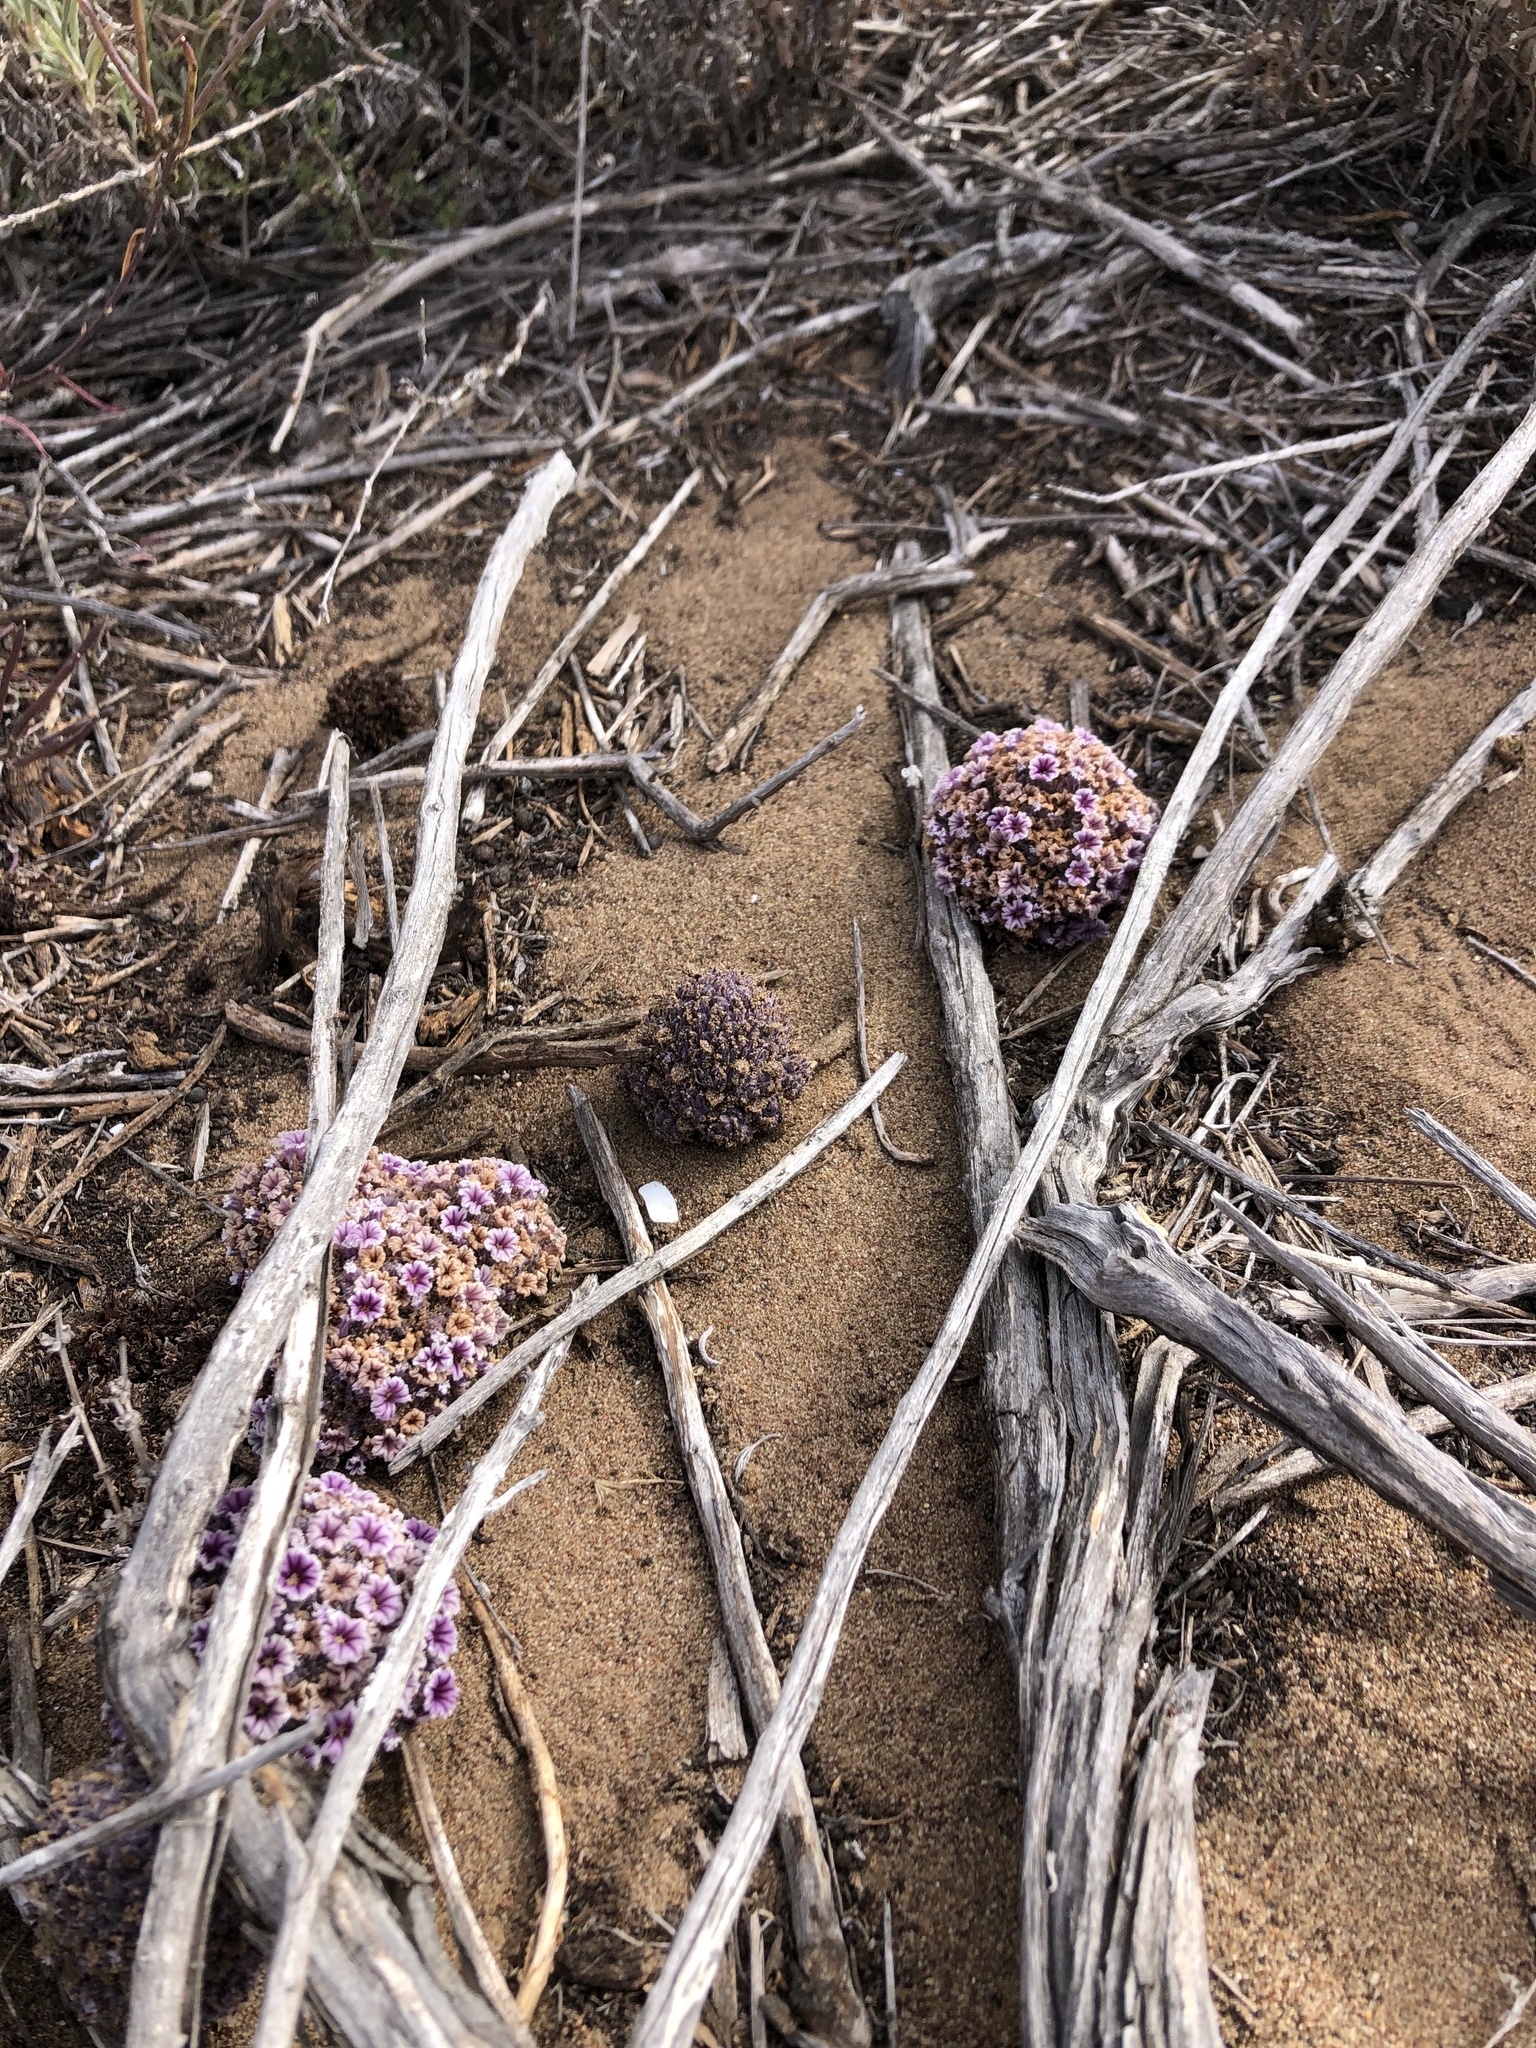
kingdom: Plantae
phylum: Tracheophyta
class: Magnoliopsida
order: Boraginales
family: Lennoaceae
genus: Pholisma
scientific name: Pholisma arenarium
